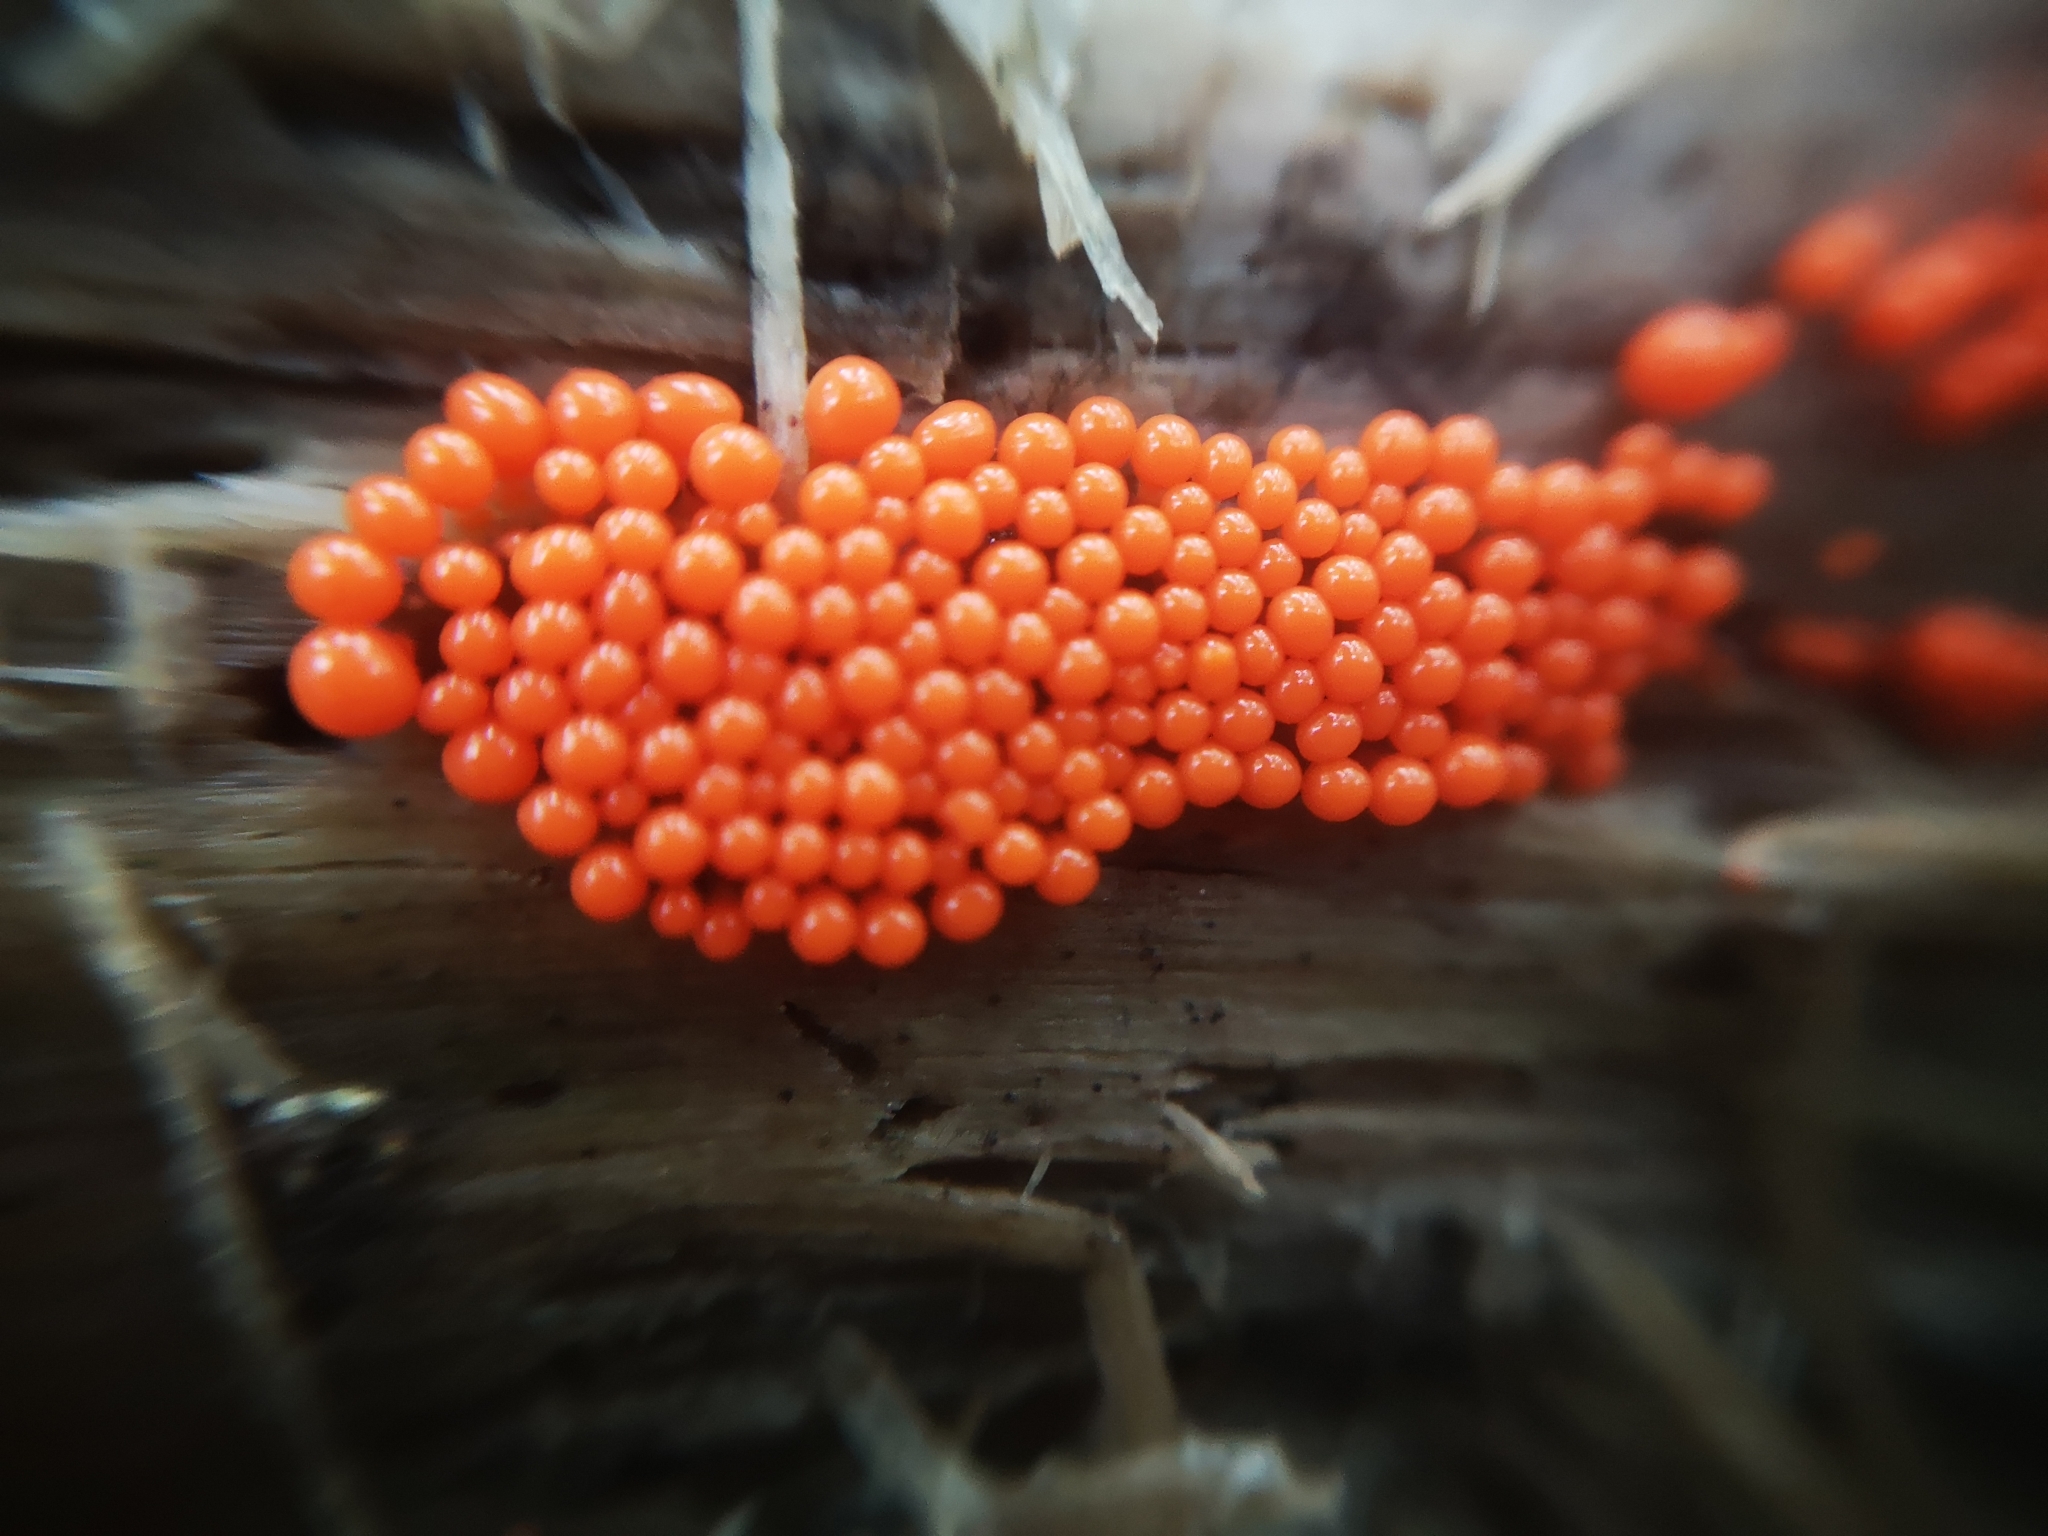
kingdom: Protozoa
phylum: Mycetozoa
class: Myxomycetes
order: Trichiales
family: Arcyriaceae
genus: Hemitrichia
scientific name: Hemitrichia decipiens
